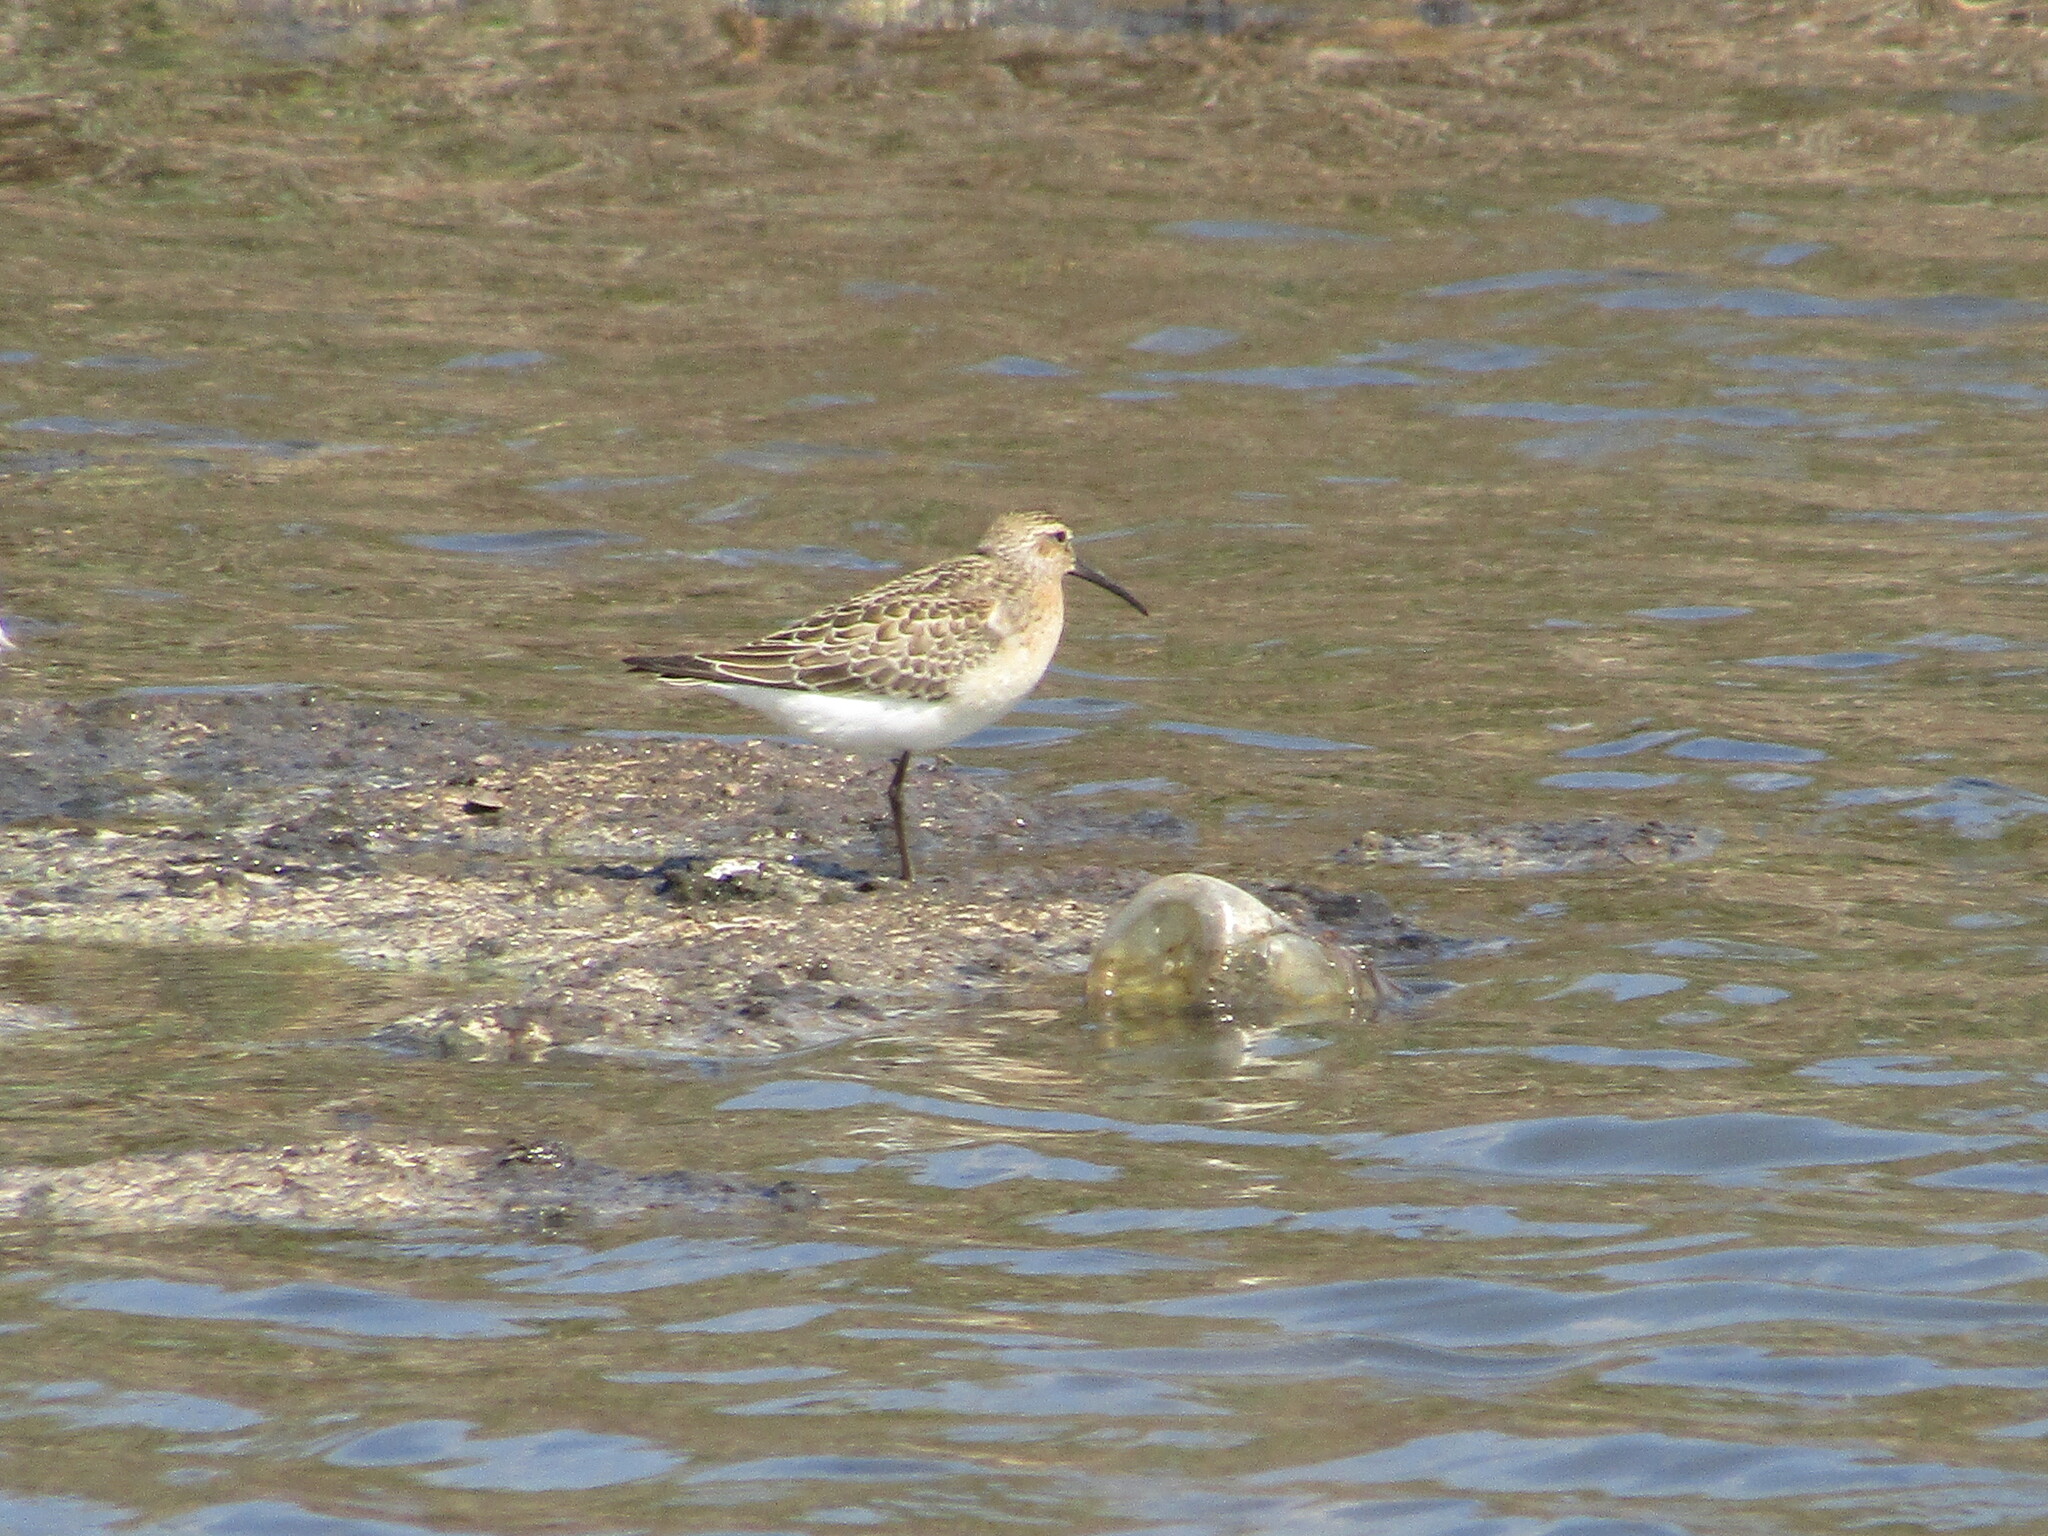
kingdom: Animalia
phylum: Chordata
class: Aves
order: Charadriiformes
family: Scolopacidae
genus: Calidris
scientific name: Calidris ferruginea
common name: Curlew sandpiper
